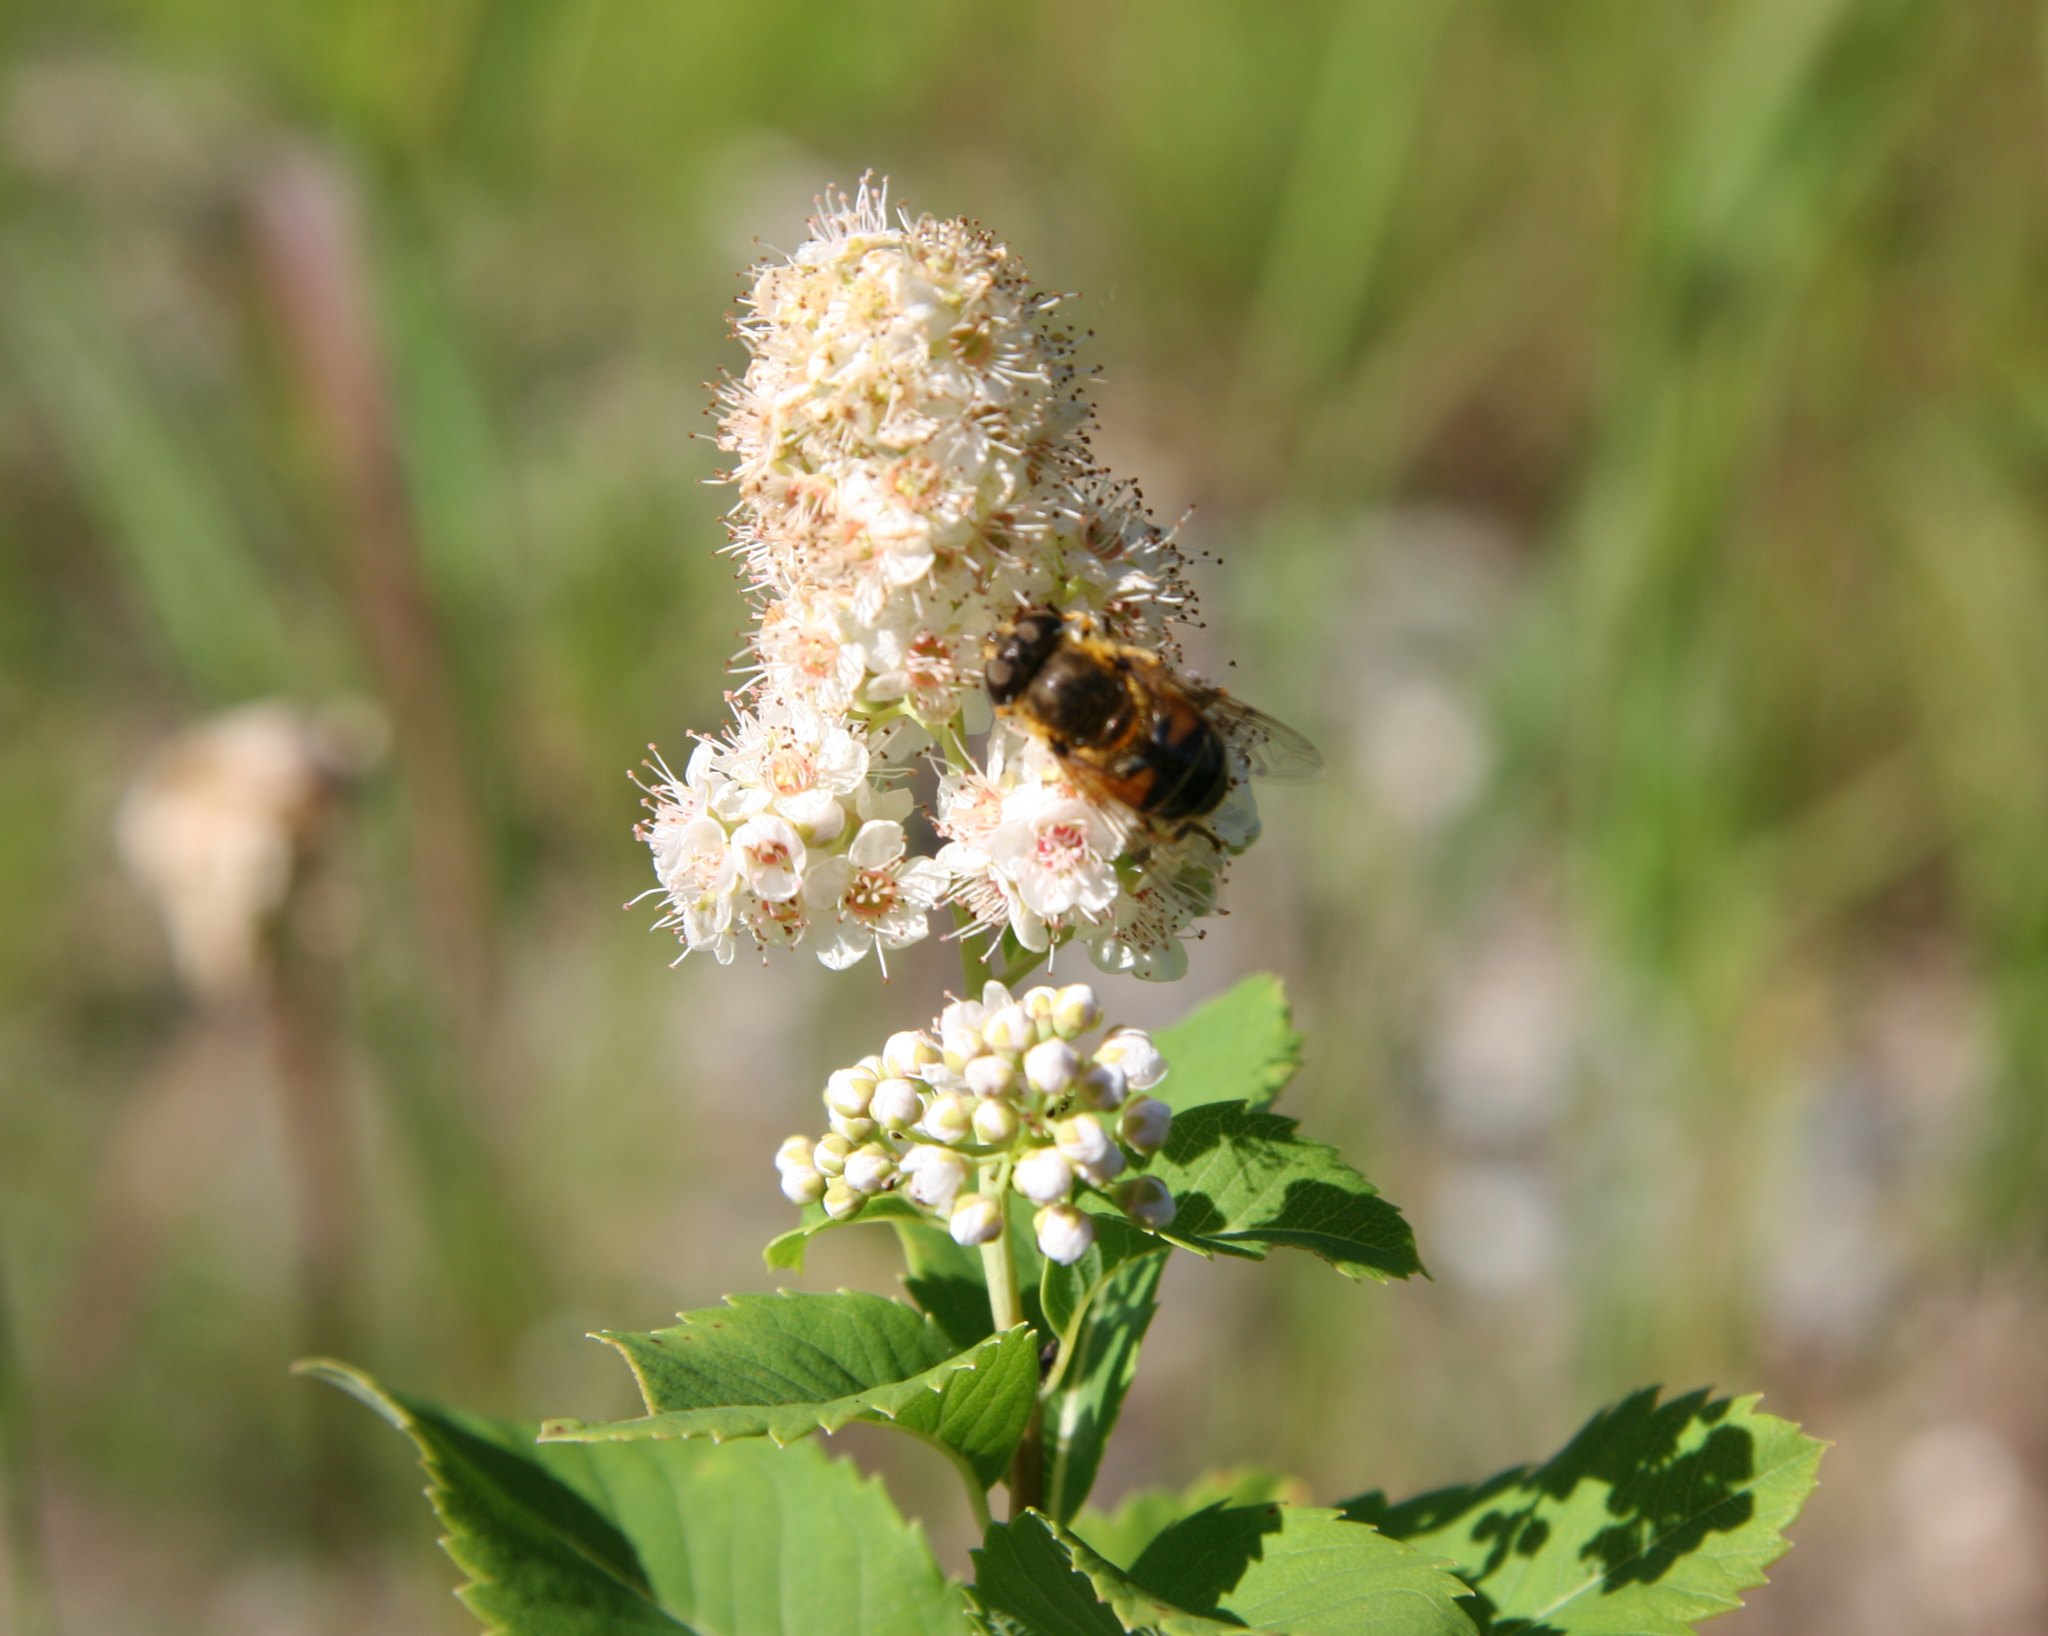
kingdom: Plantae
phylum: Tracheophyta
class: Magnoliopsida
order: Rosales
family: Rosaceae
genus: Spiraea
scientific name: Spiraea alba
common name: Pale bridewort
